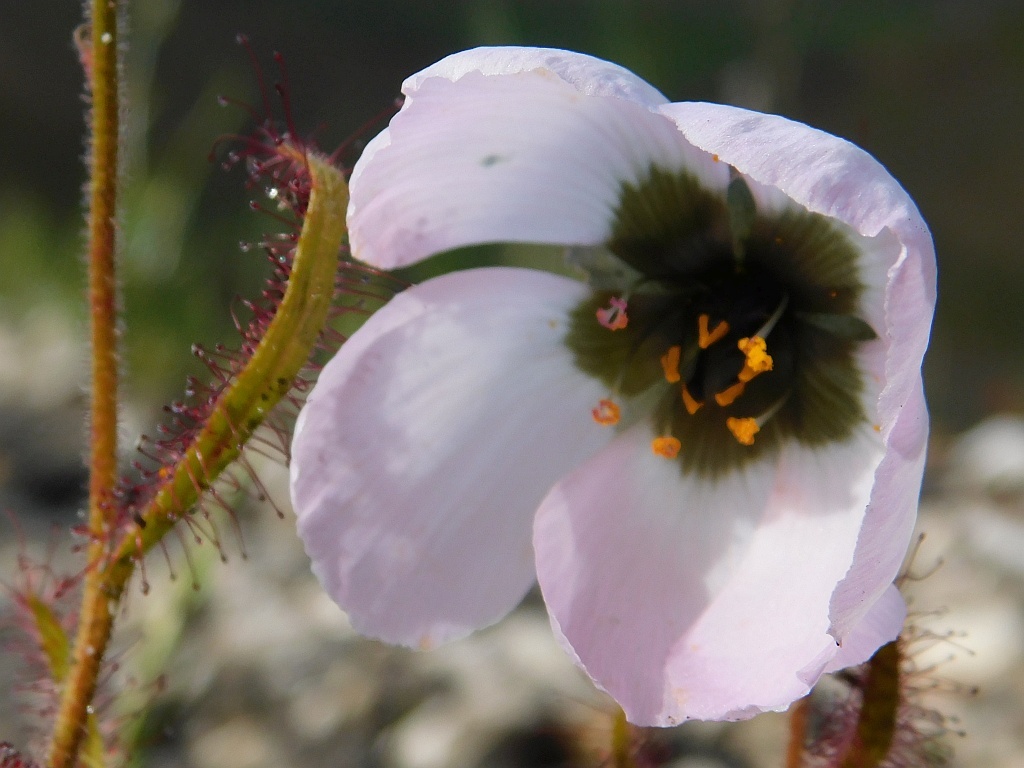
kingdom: Plantae
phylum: Tracheophyta
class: Magnoliopsida
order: Caryophyllales
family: Droseraceae
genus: Drosera
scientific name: Drosera cistiflora
